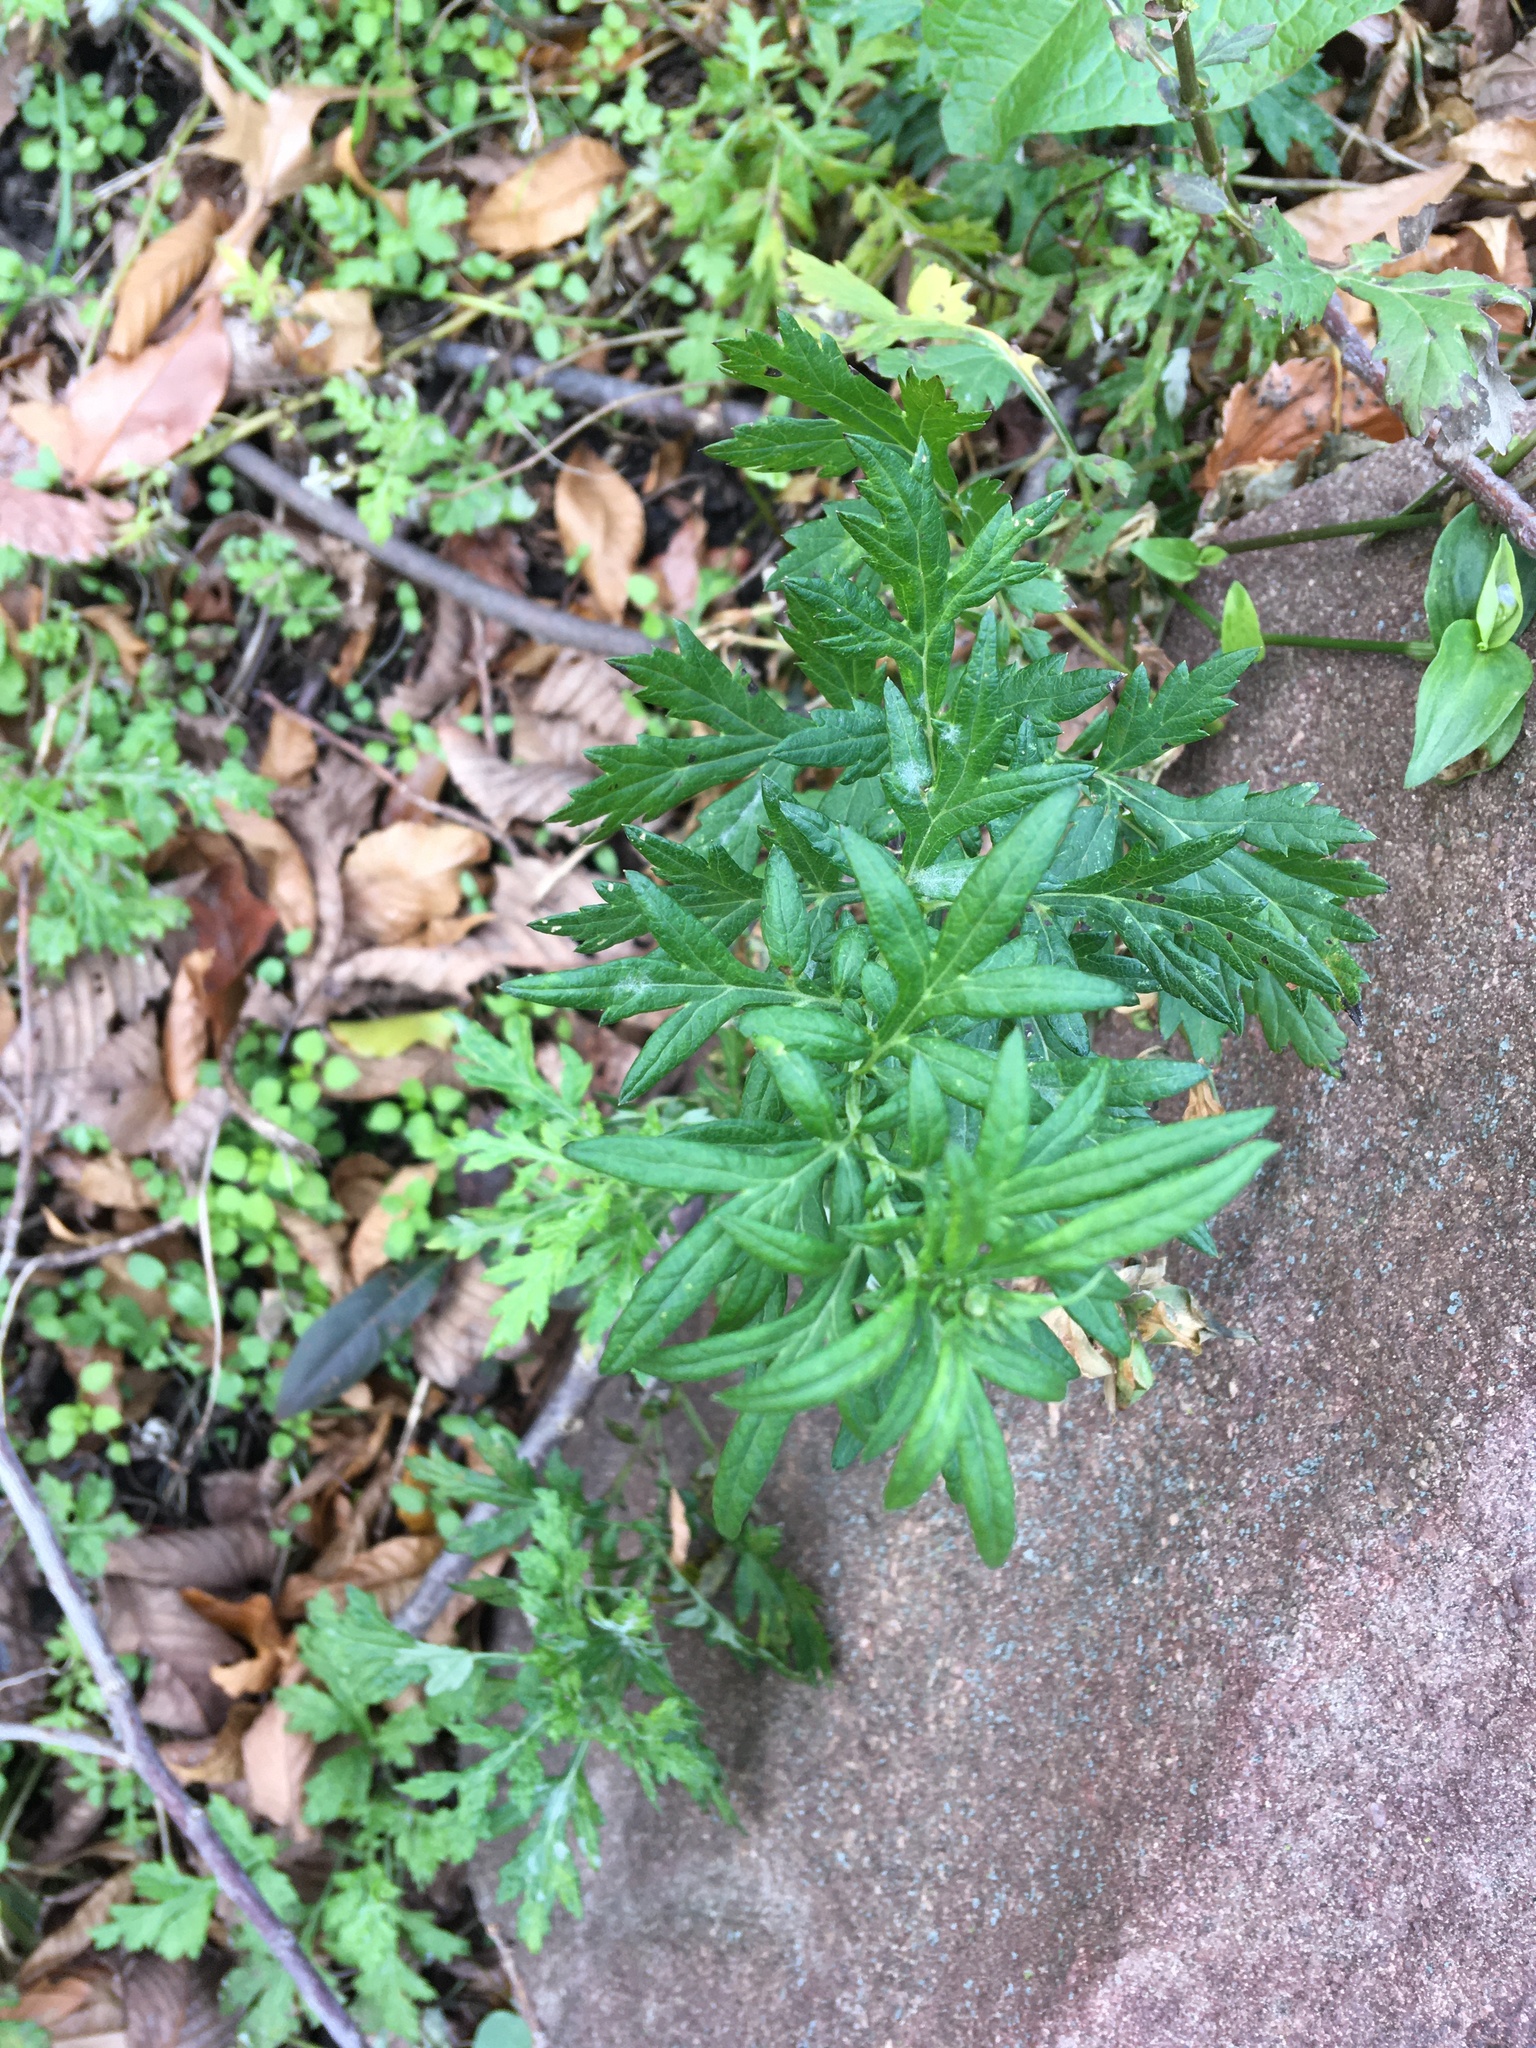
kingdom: Plantae
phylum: Tracheophyta
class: Magnoliopsida
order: Asterales
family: Asteraceae
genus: Artemisia
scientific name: Artemisia vulgaris
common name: Mugwort
